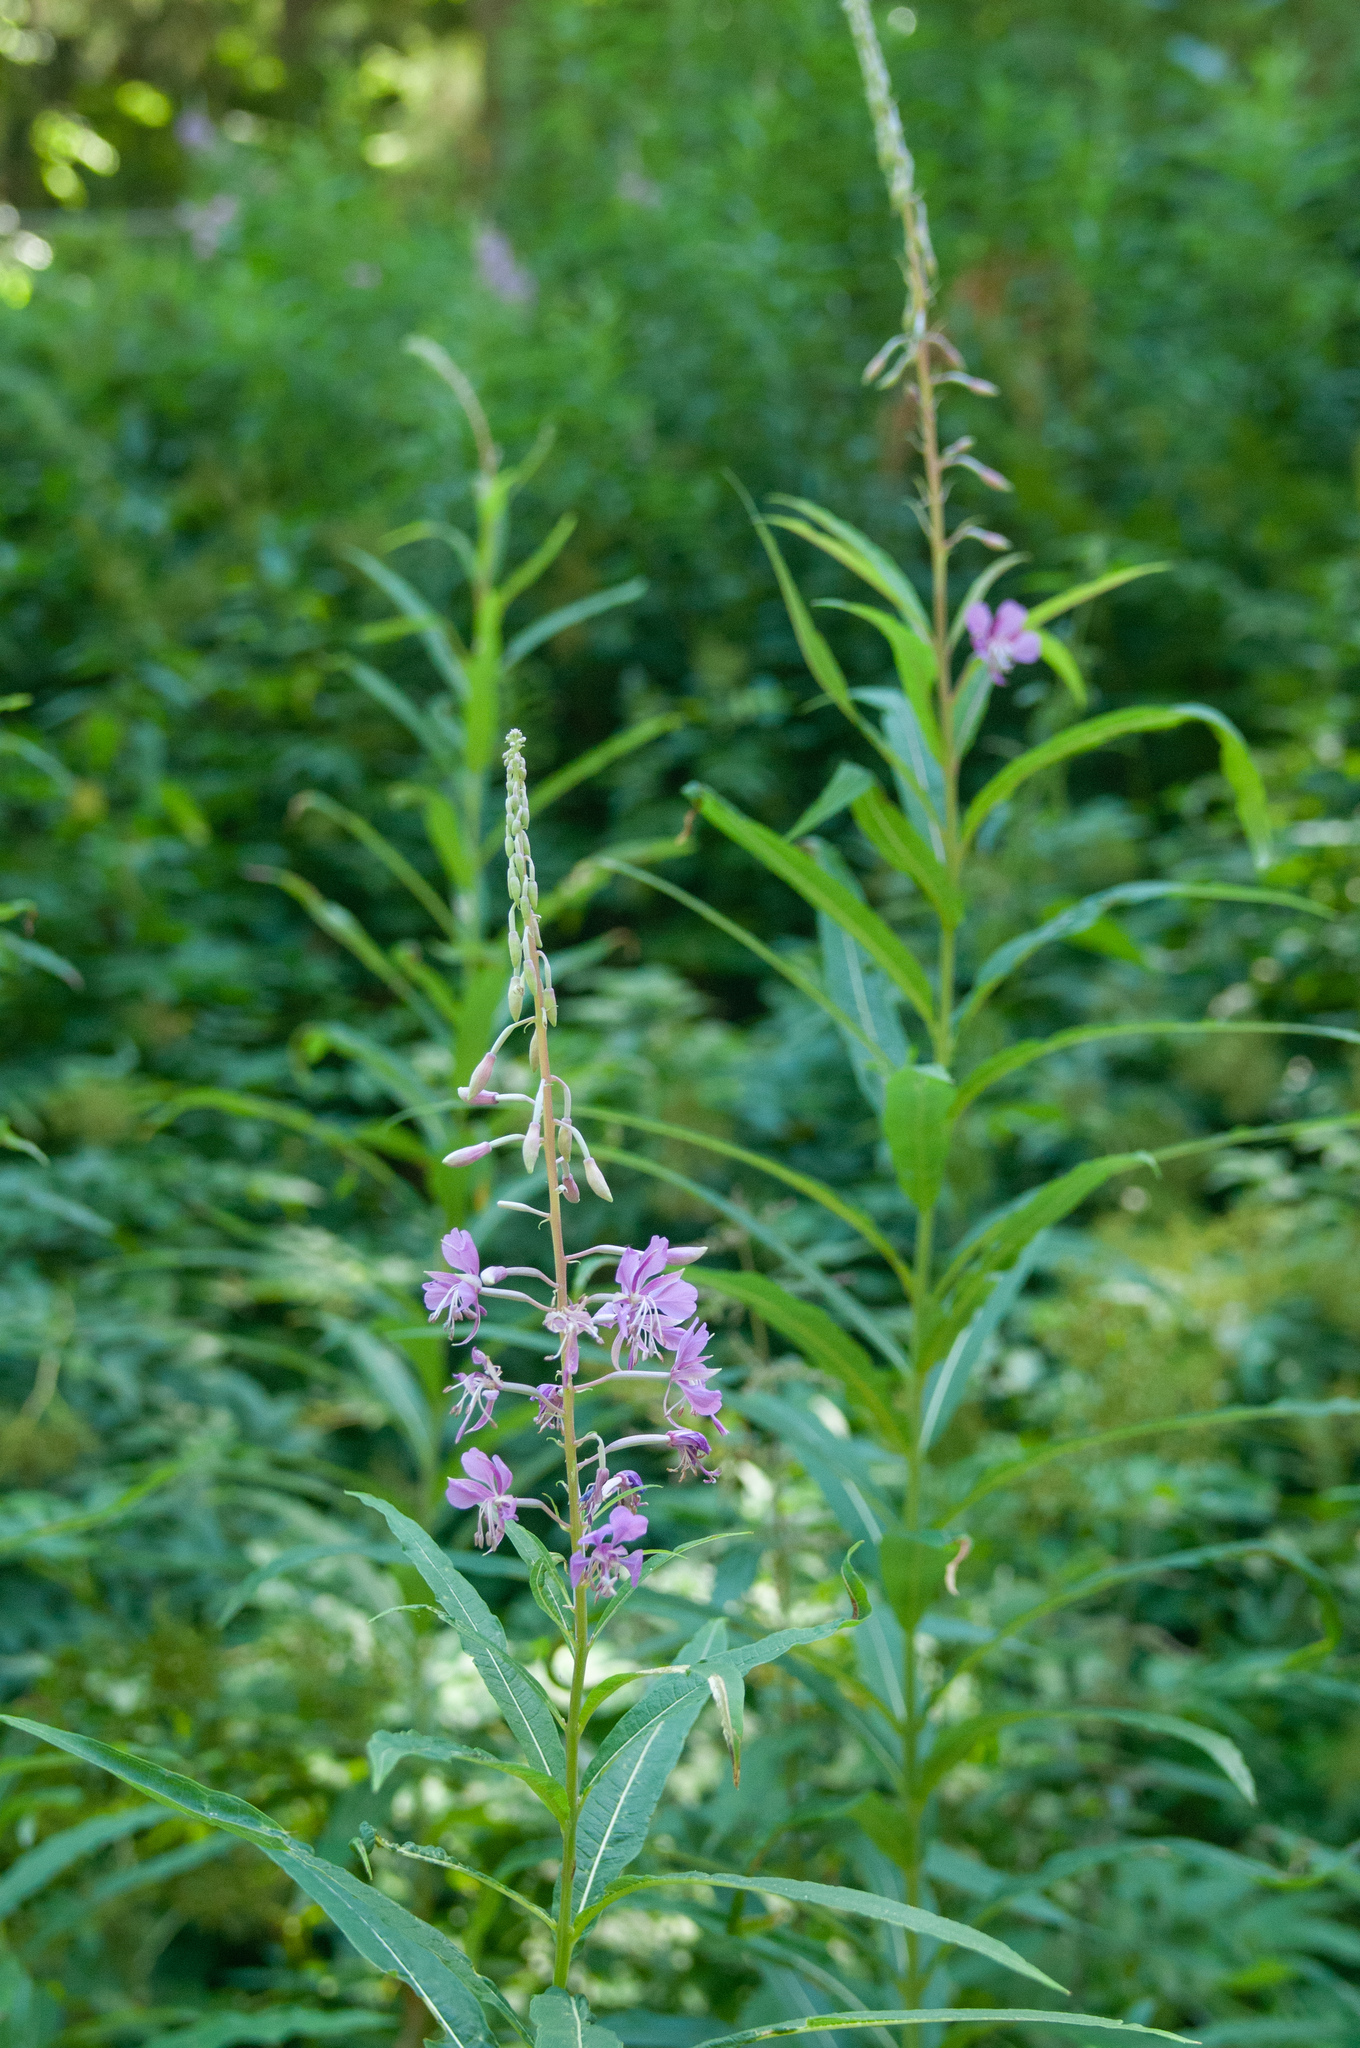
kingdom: Plantae
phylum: Tracheophyta
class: Magnoliopsida
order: Myrtales
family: Onagraceae
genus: Chamaenerion
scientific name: Chamaenerion angustifolium
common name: Fireweed
